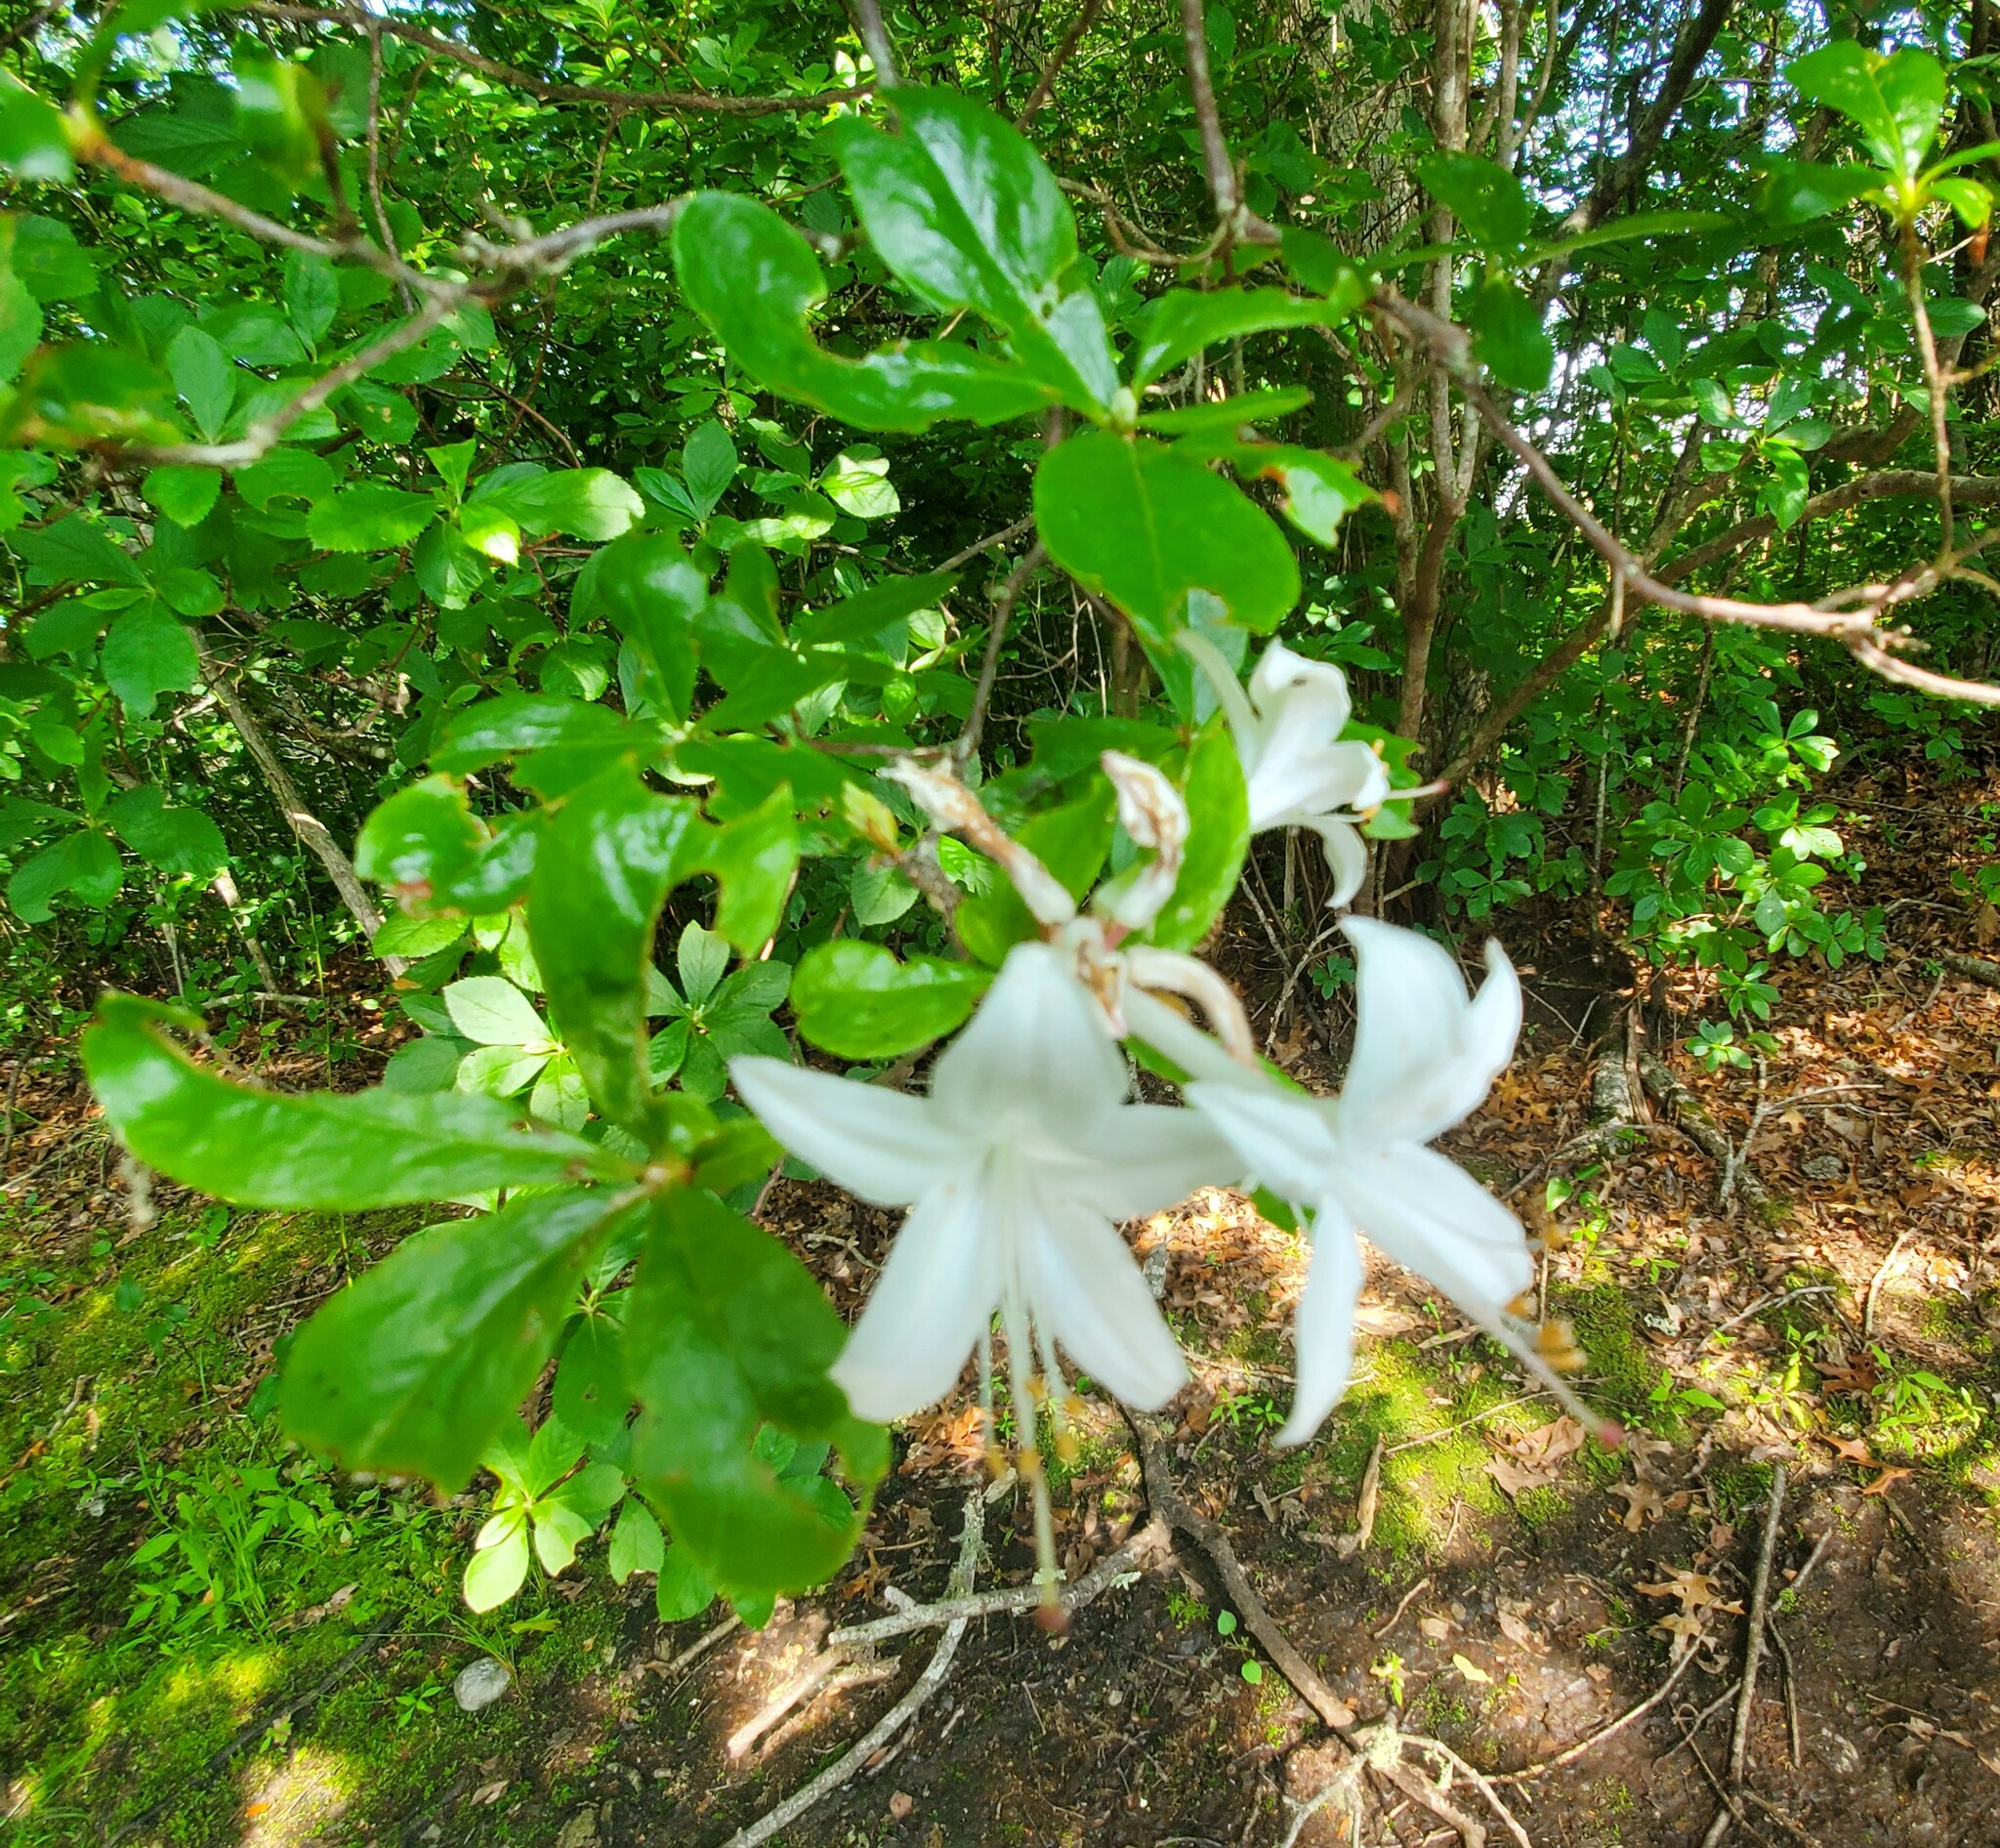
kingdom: Plantae
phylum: Tracheophyta
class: Magnoliopsida
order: Ericales
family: Ericaceae
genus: Rhododendron
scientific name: Rhododendron viscosum
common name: Clammy azalea
